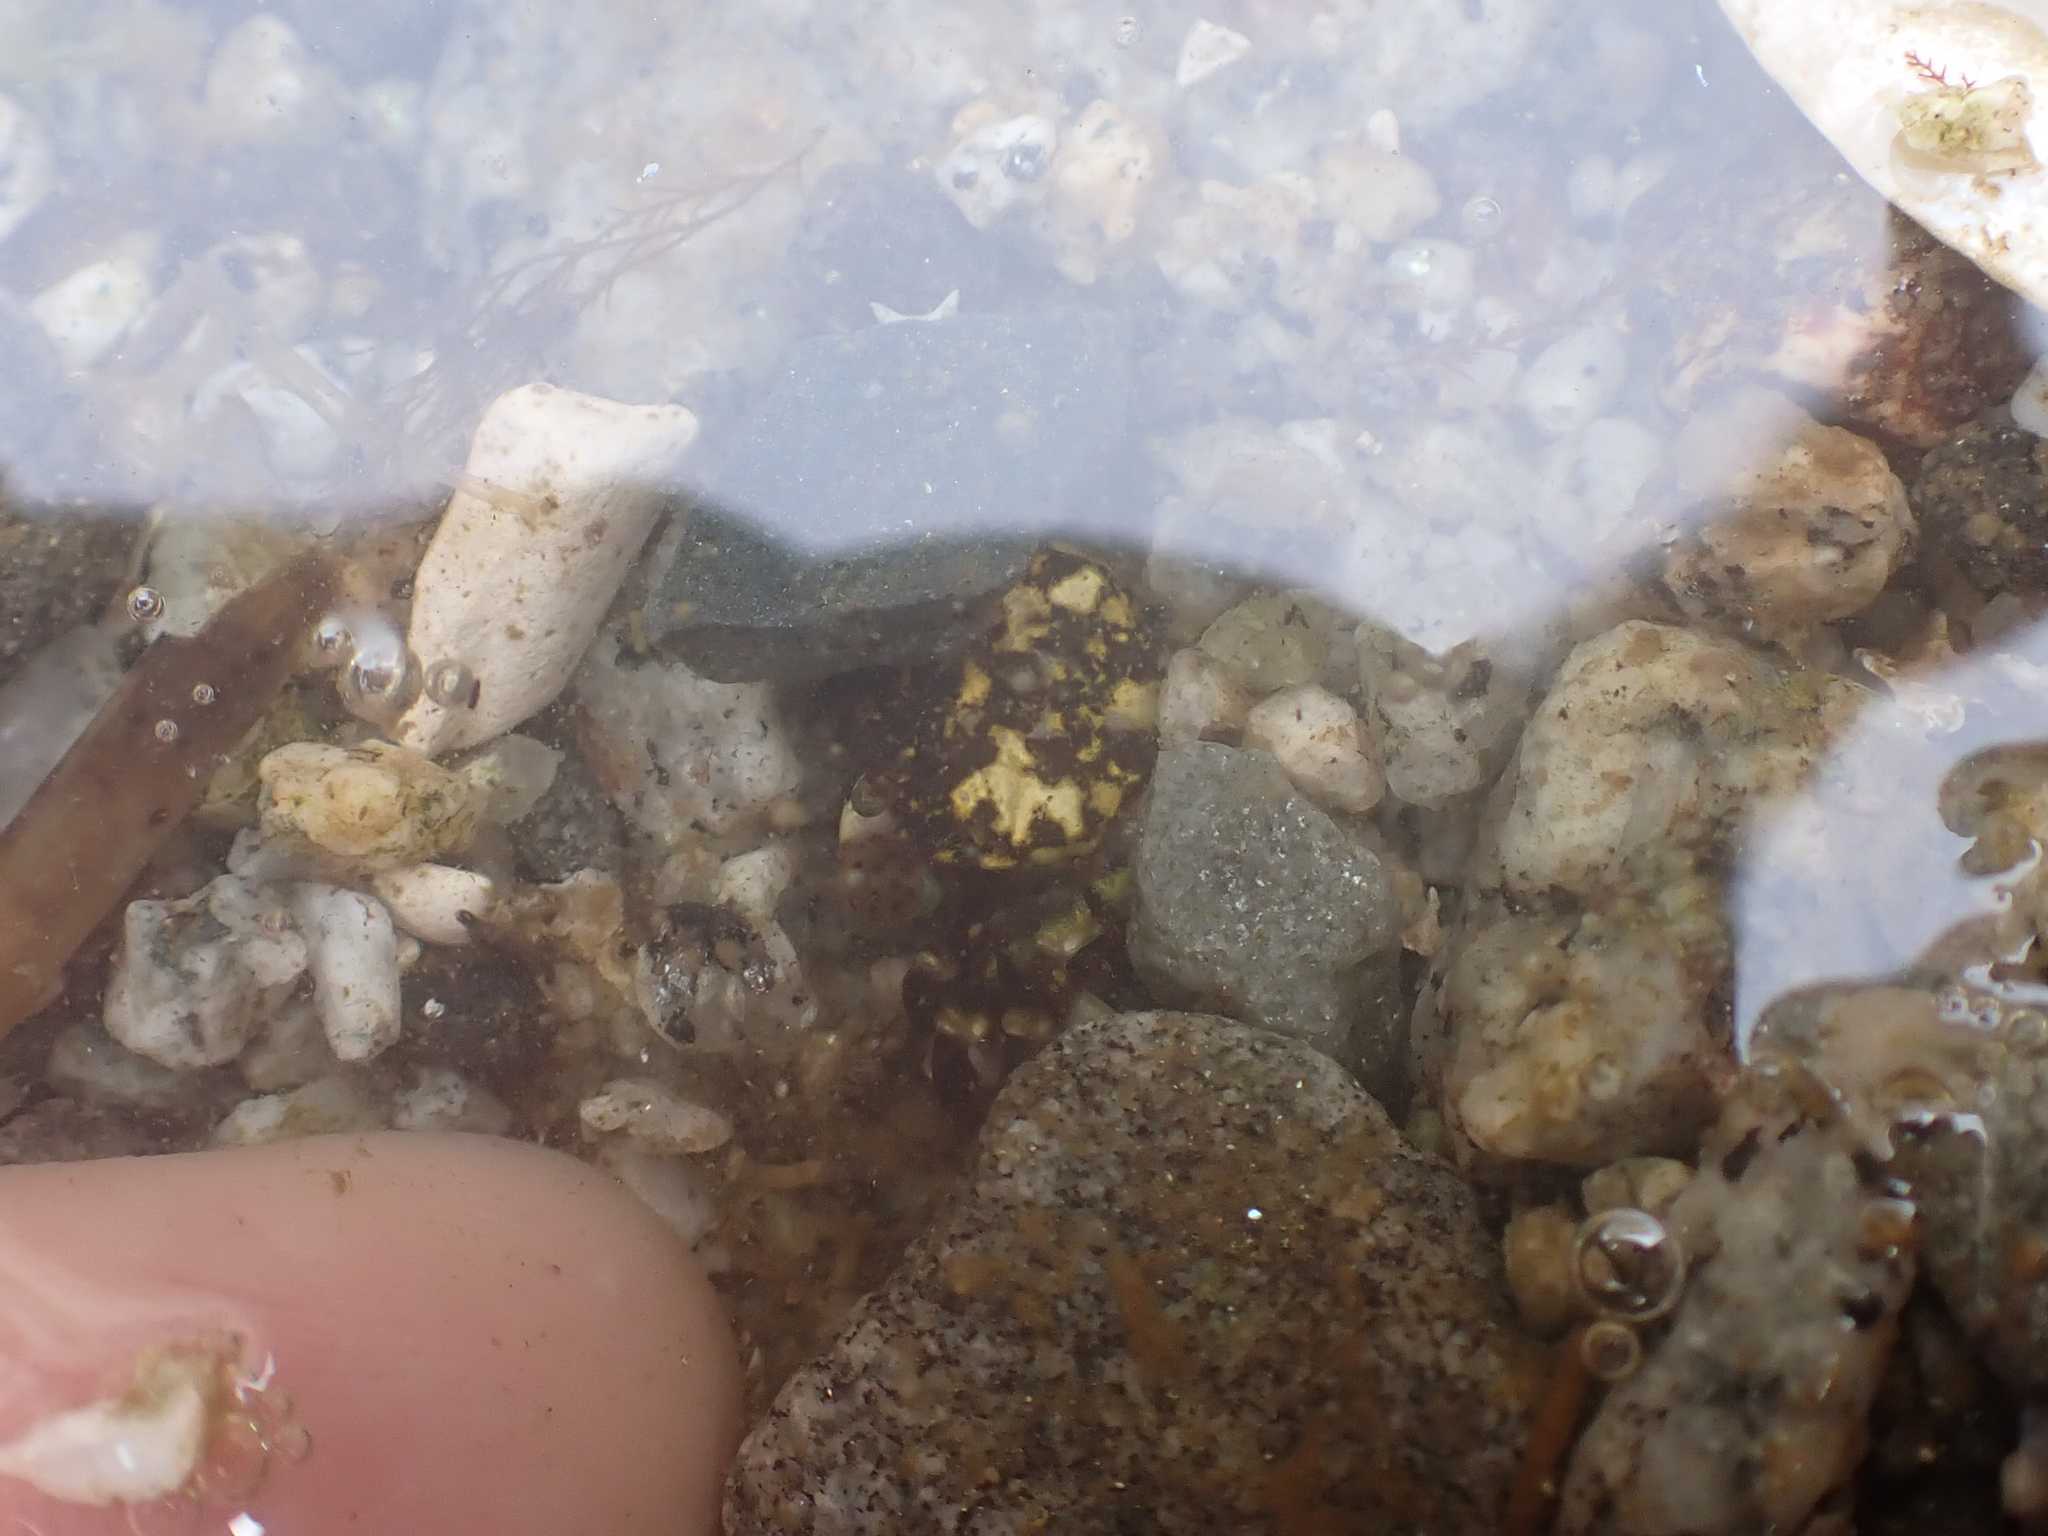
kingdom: Animalia
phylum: Arthropoda
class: Malacostraca
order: Decapoda
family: Varunidae
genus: Hemigrapsus
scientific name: Hemigrapsus nudus
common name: Purple shore crab
